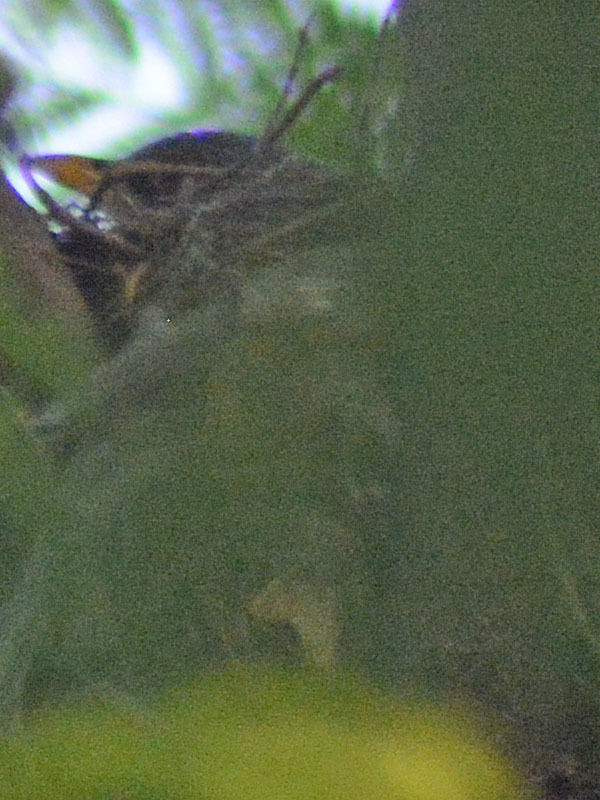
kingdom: Animalia
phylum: Chordata
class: Aves
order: Passeriformes
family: Turdidae
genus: Turdus
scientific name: Turdus rufopalliatus
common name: Rufous-backed robin
